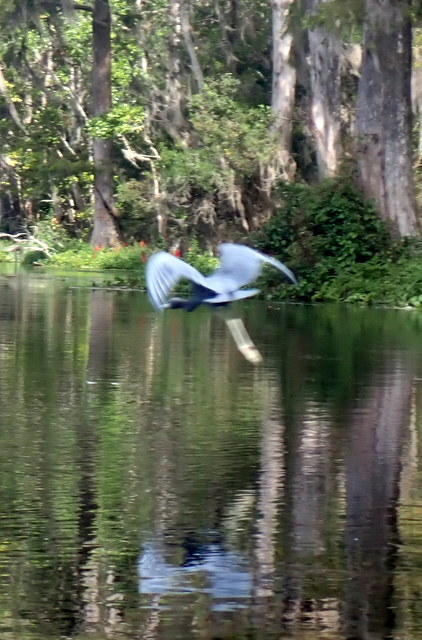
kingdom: Animalia
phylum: Chordata
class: Aves
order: Pelecaniformes
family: Ardeidae
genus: Egretta
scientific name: Egretta caerulea
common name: Little blue heron
